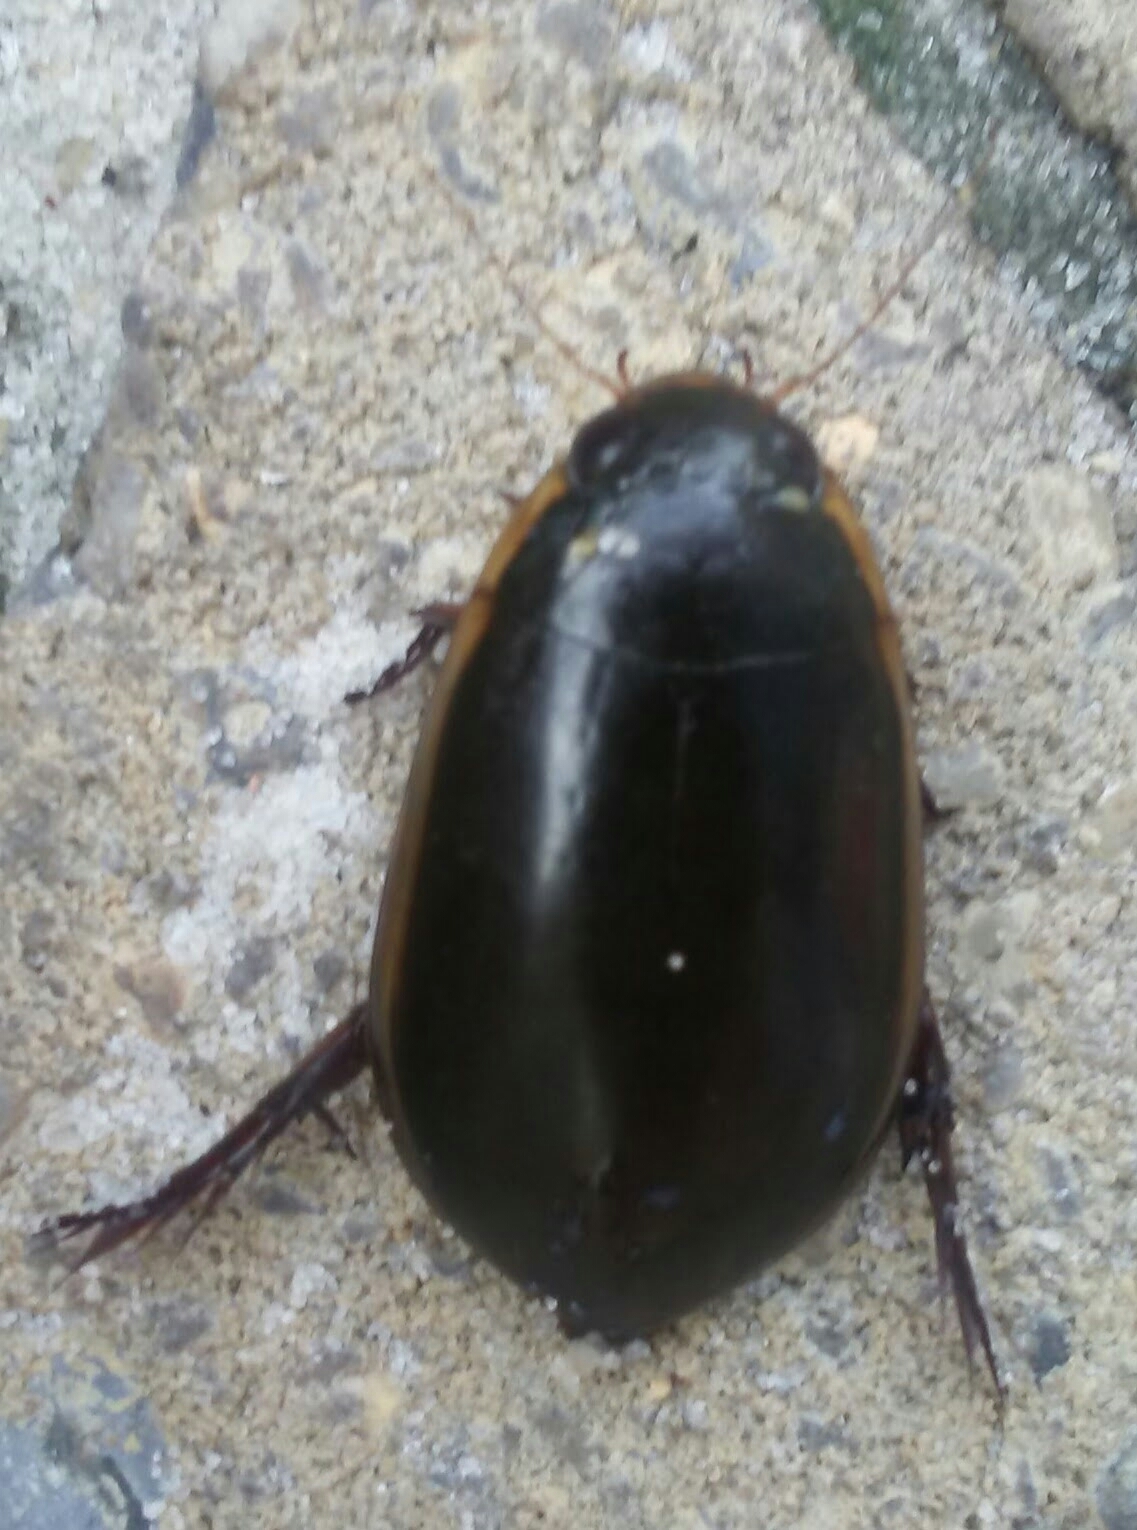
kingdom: Animalia
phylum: Arthropoda
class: Insecta
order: Coleoptera
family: Dytiscidae
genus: Cybister
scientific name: Cybister fimbriolatus
